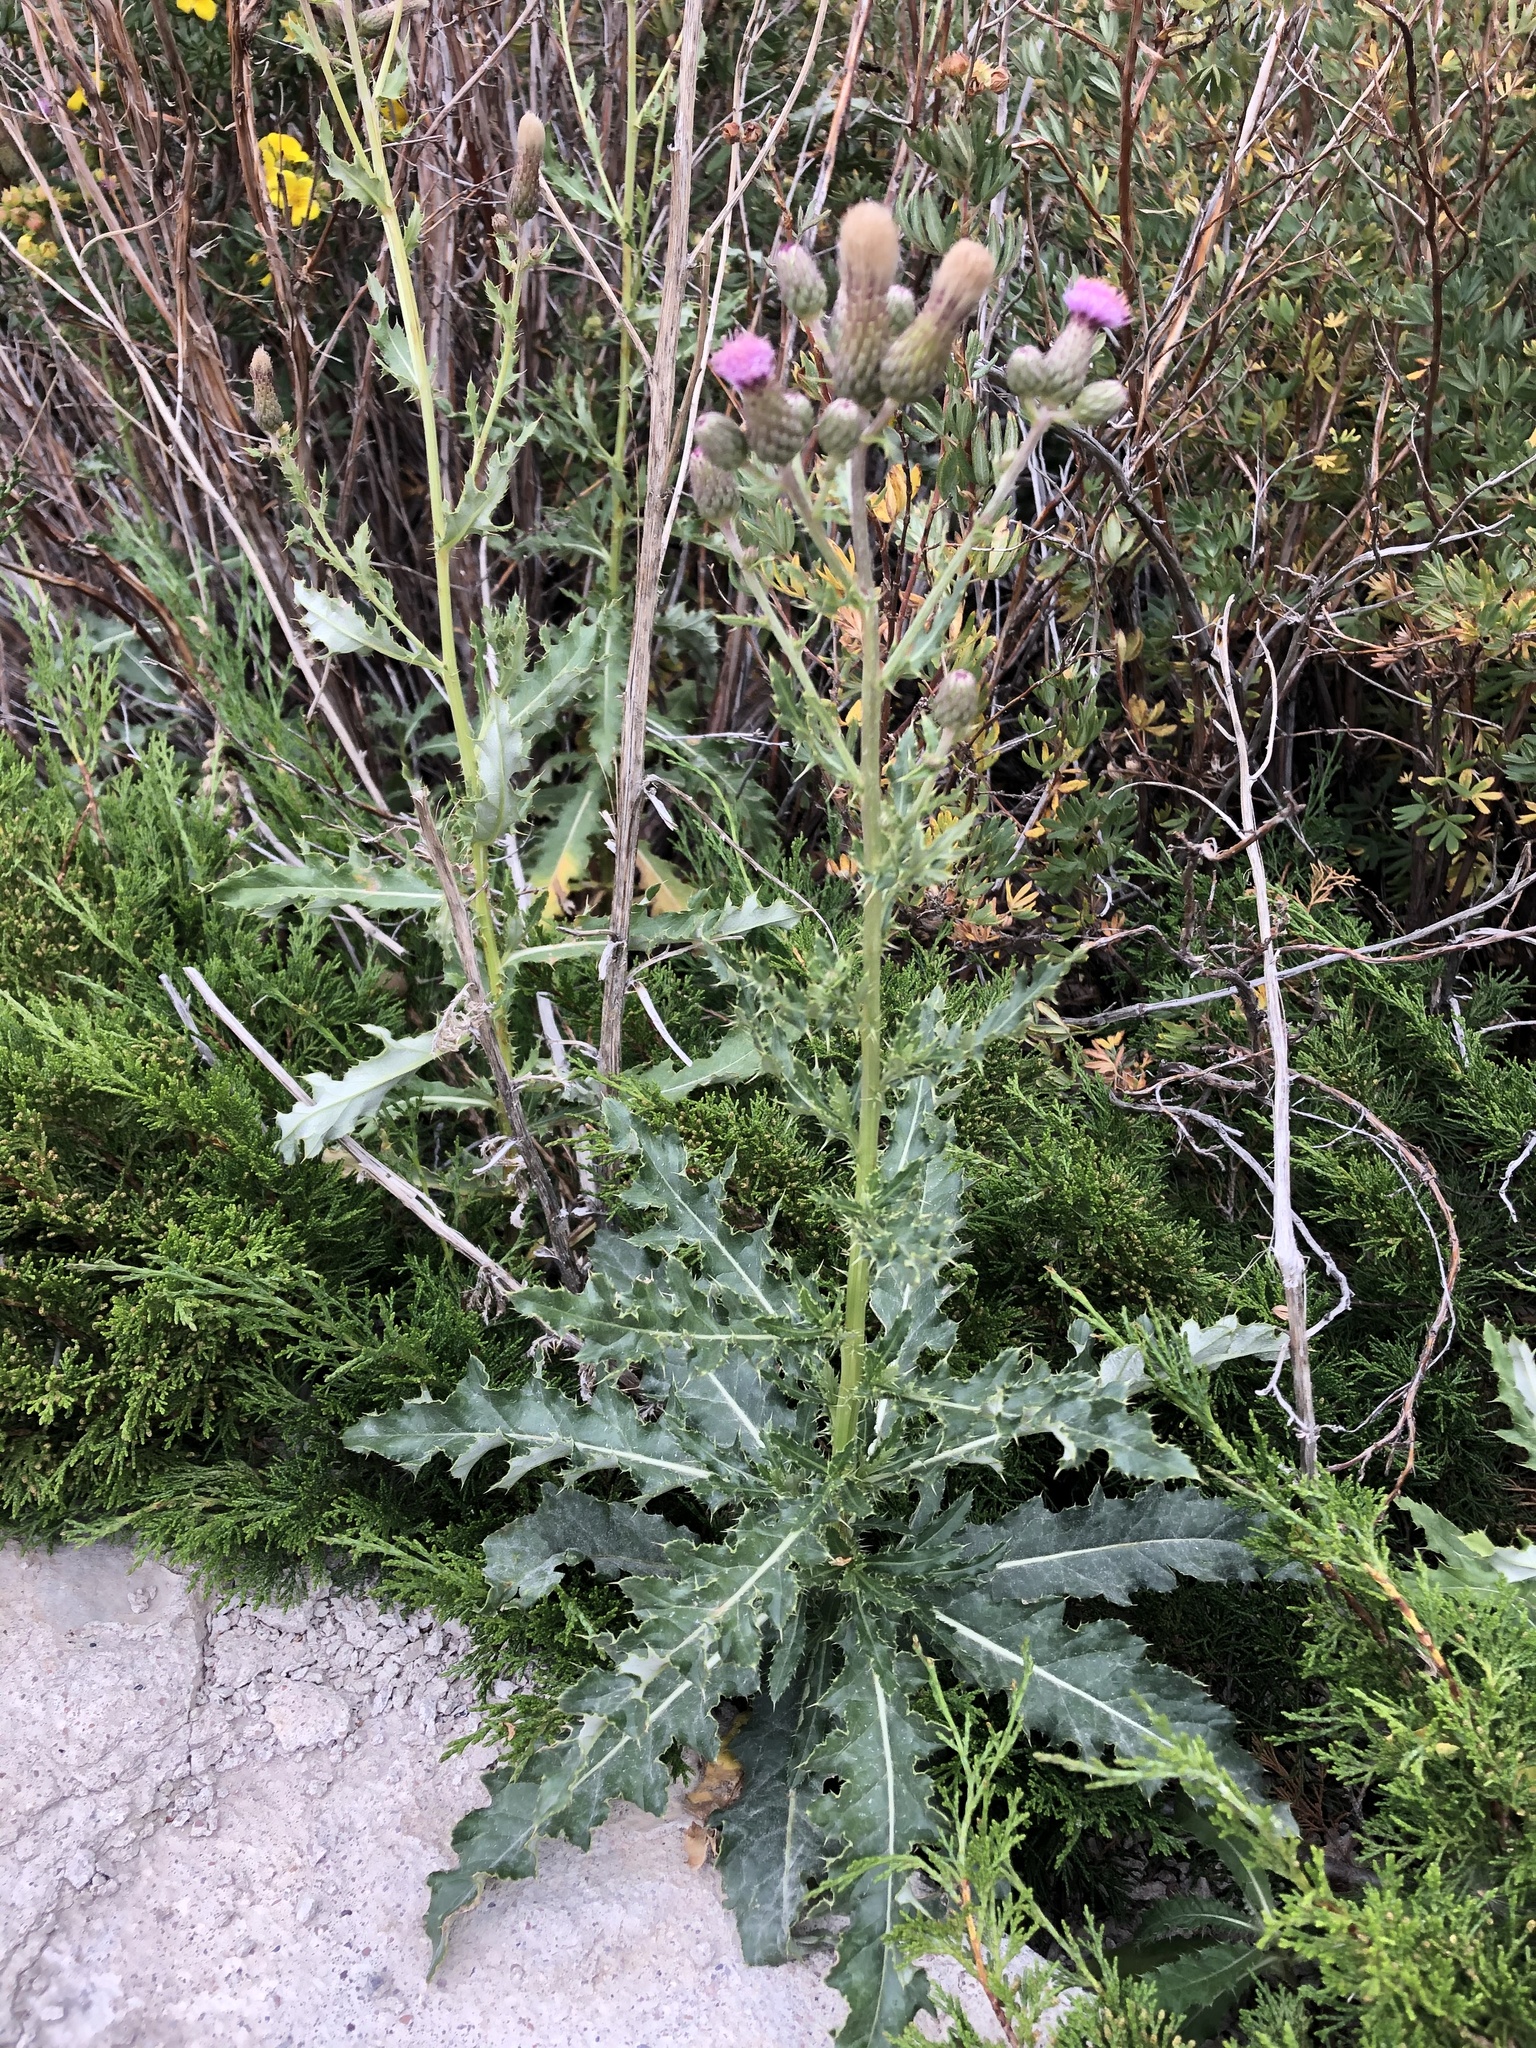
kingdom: Plantae
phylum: Tracheophyta
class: Magnoliopsida
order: Asterales
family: Asteraceae
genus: Cirsium
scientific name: Cirsium arvense
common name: Creeping thistle
